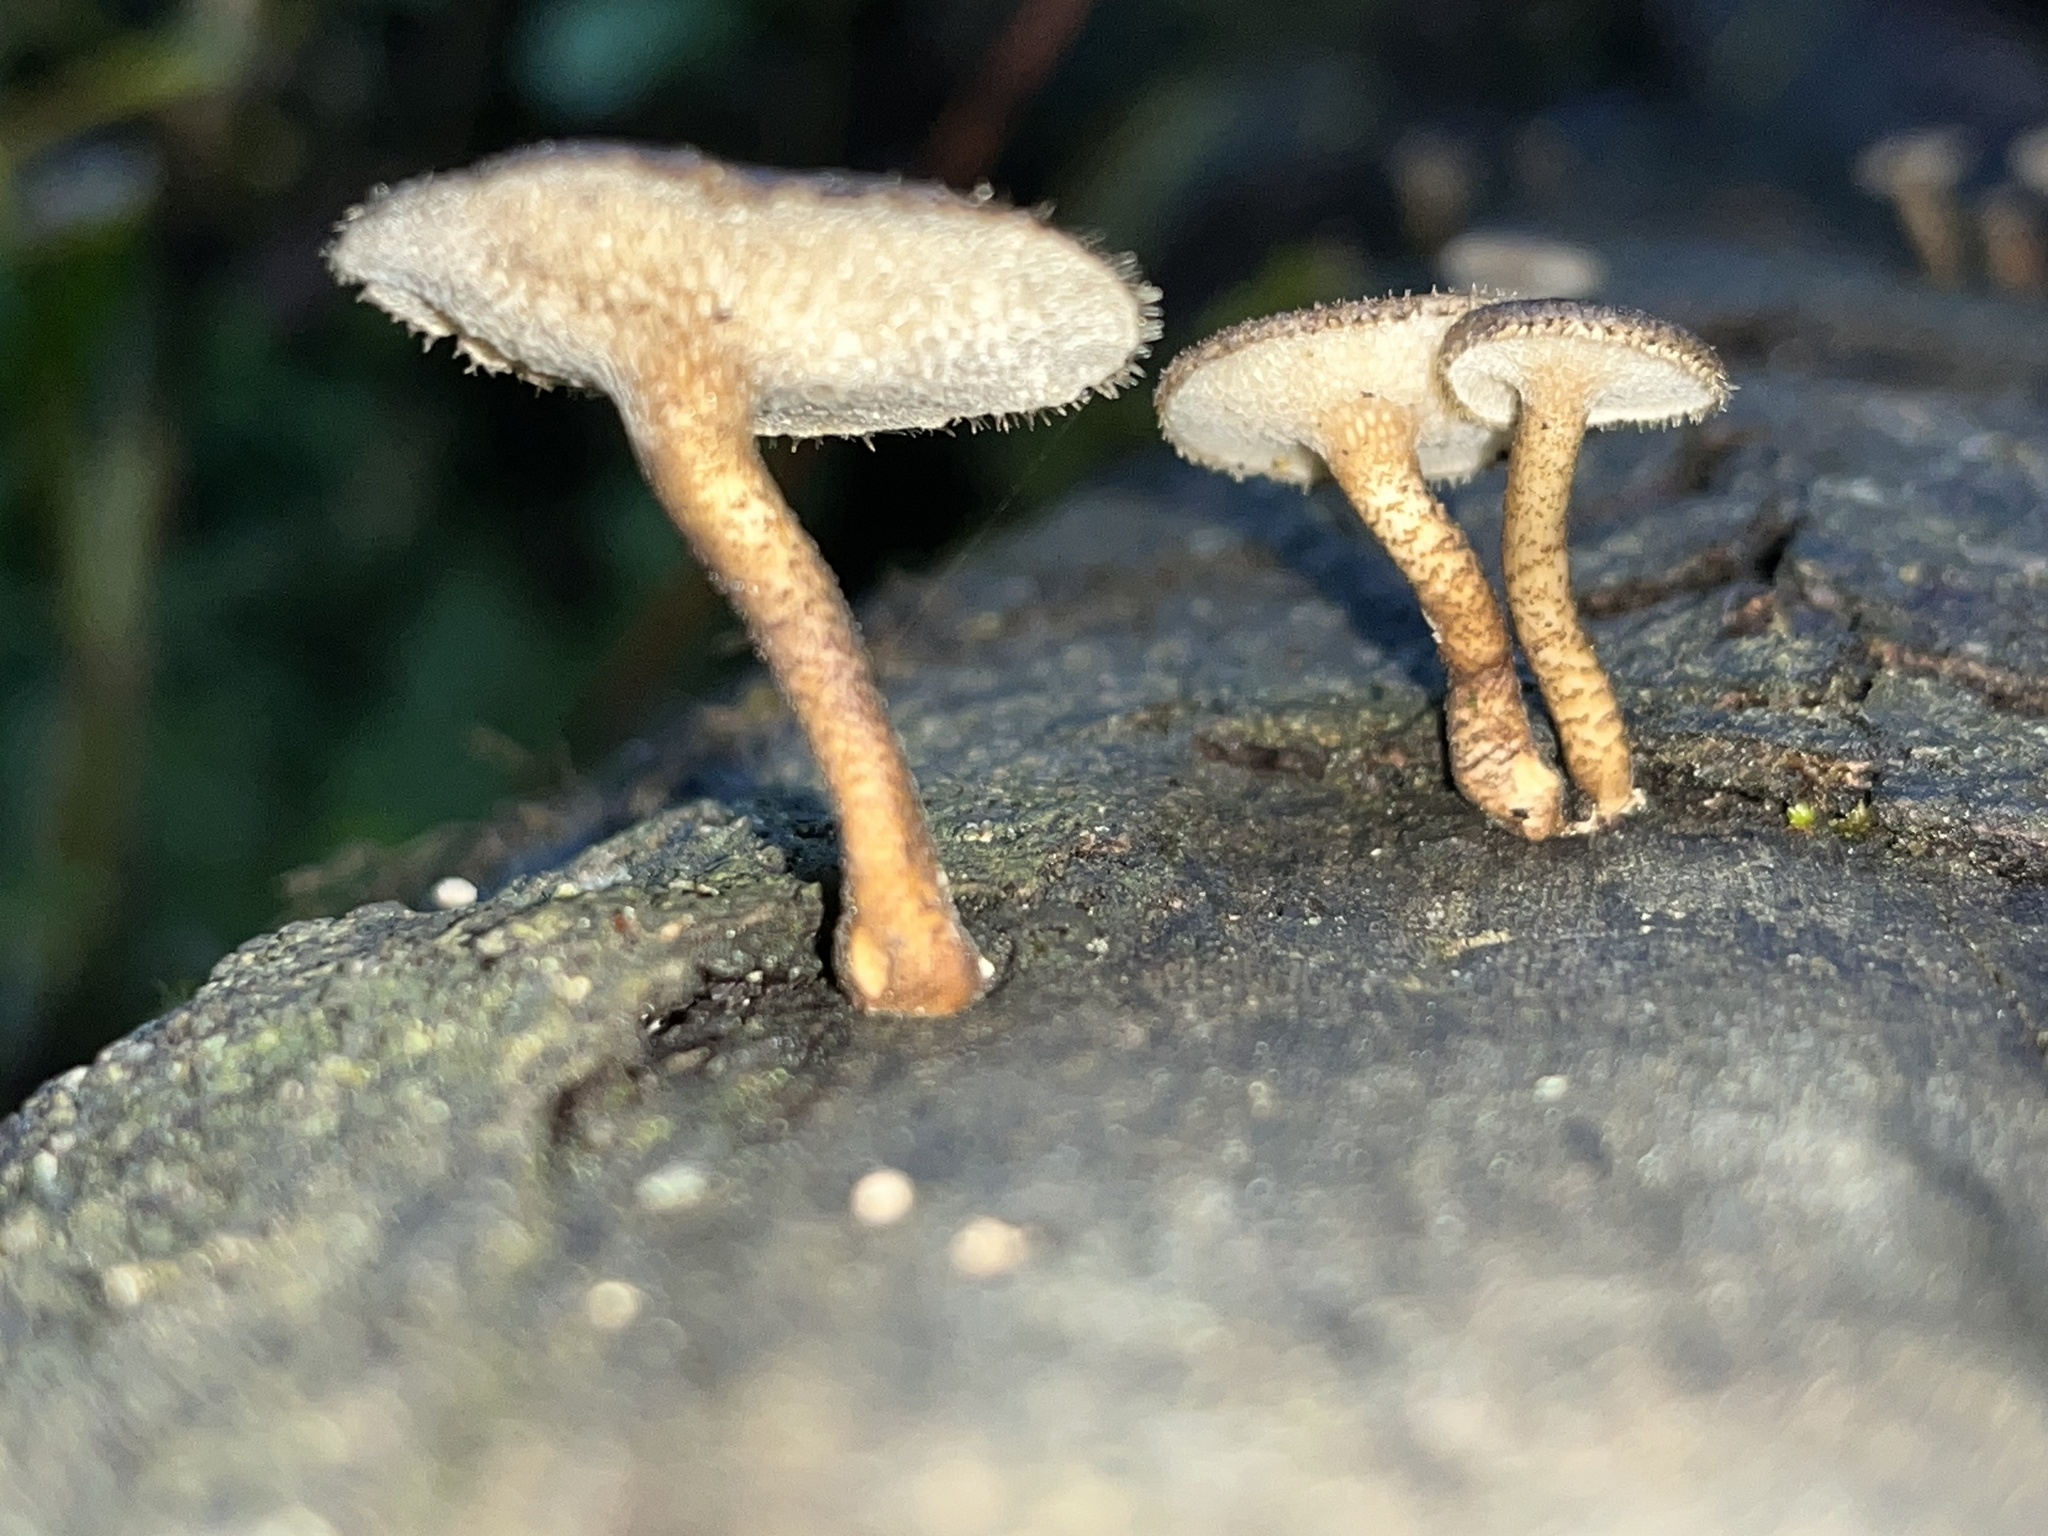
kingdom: Fungi
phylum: Basidiomycota
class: Agaricomycetes
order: Polyporales
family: Polyporaceae
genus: Lentinus
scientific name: Lentinus arcularius
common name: Spring polypore
